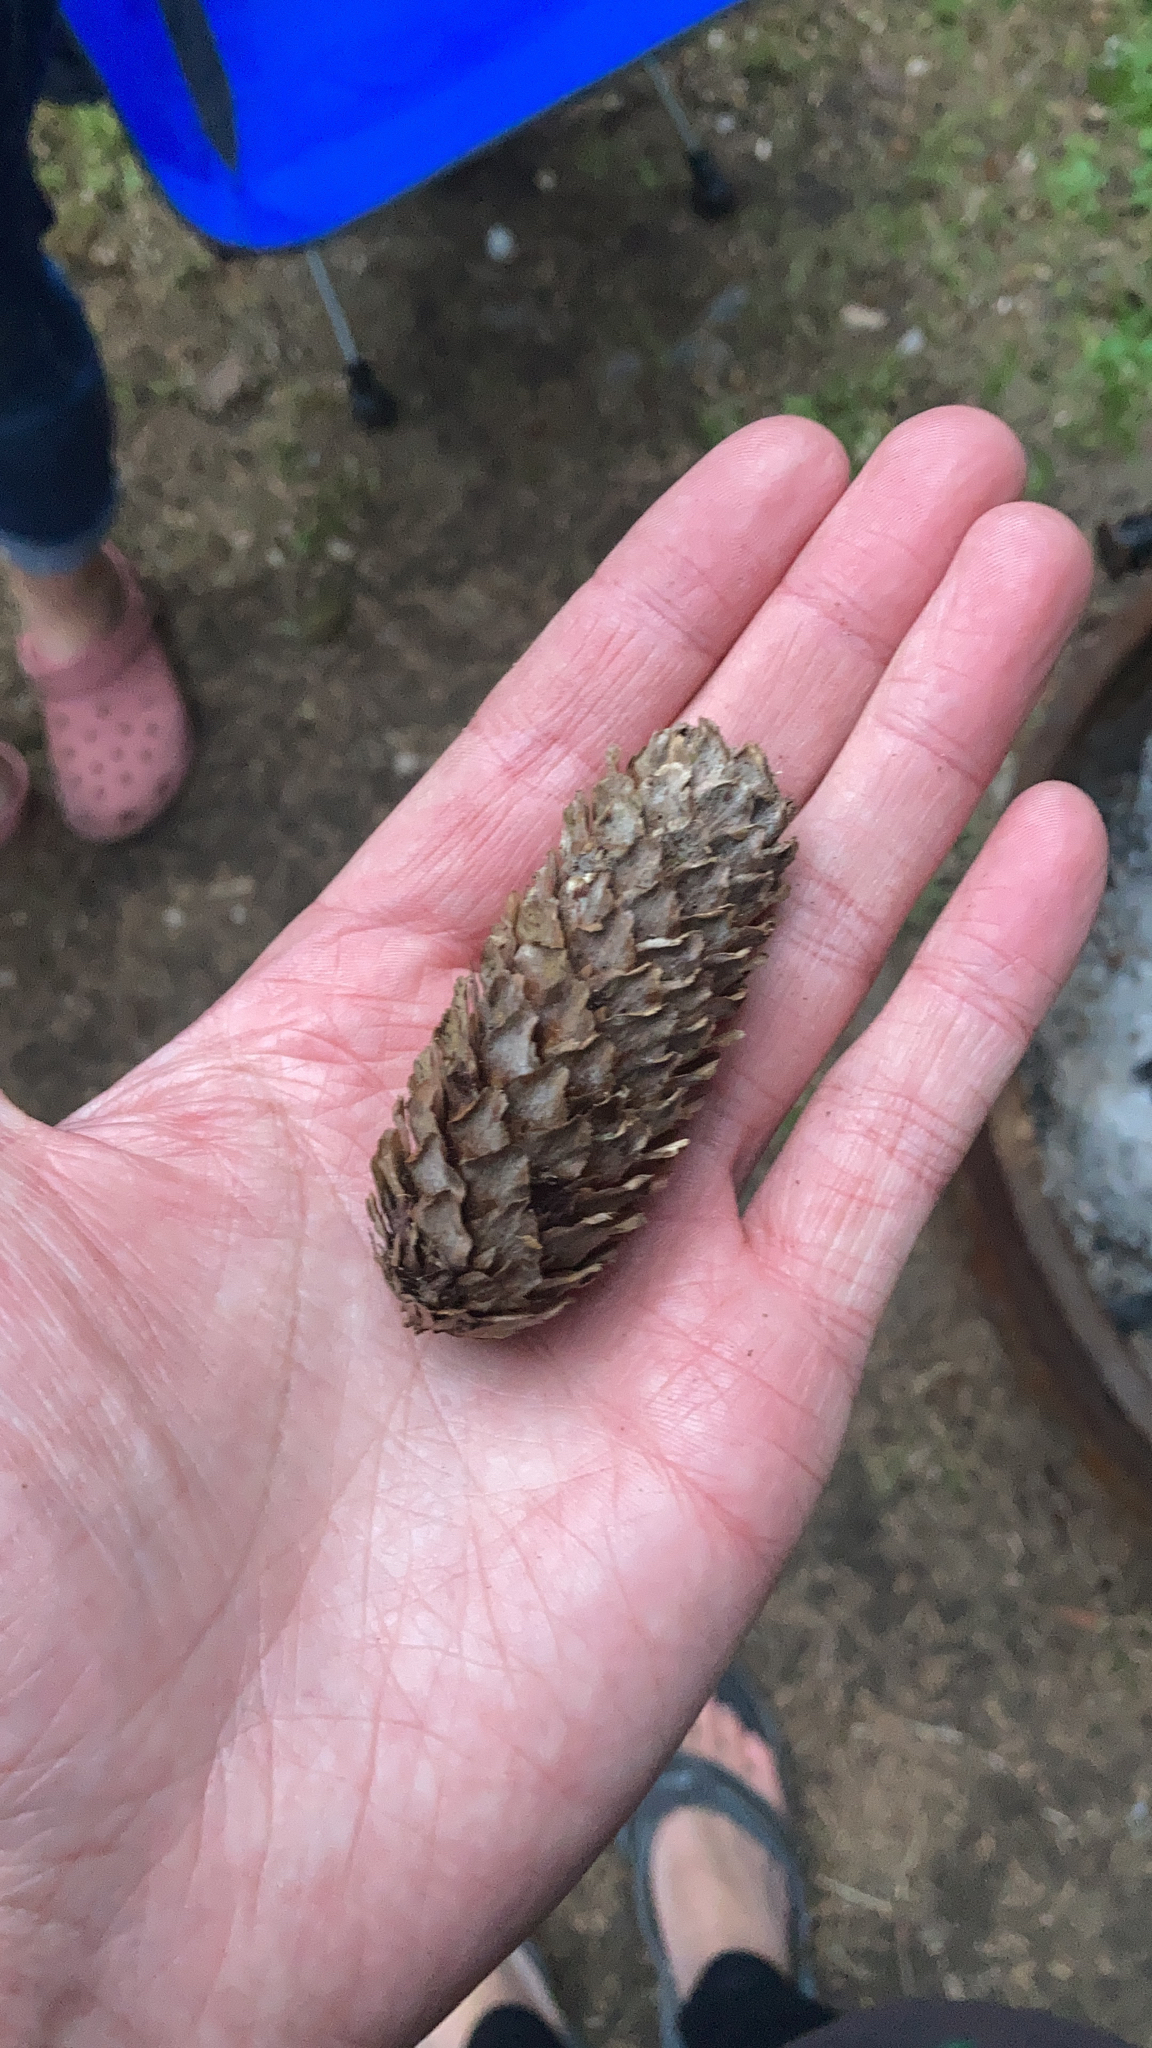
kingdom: Plantae
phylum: Tracheophyta
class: Pinopsida
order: Pinales
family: Pinaceae
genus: Picea
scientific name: Picea sitchensis
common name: Sitka spruce
